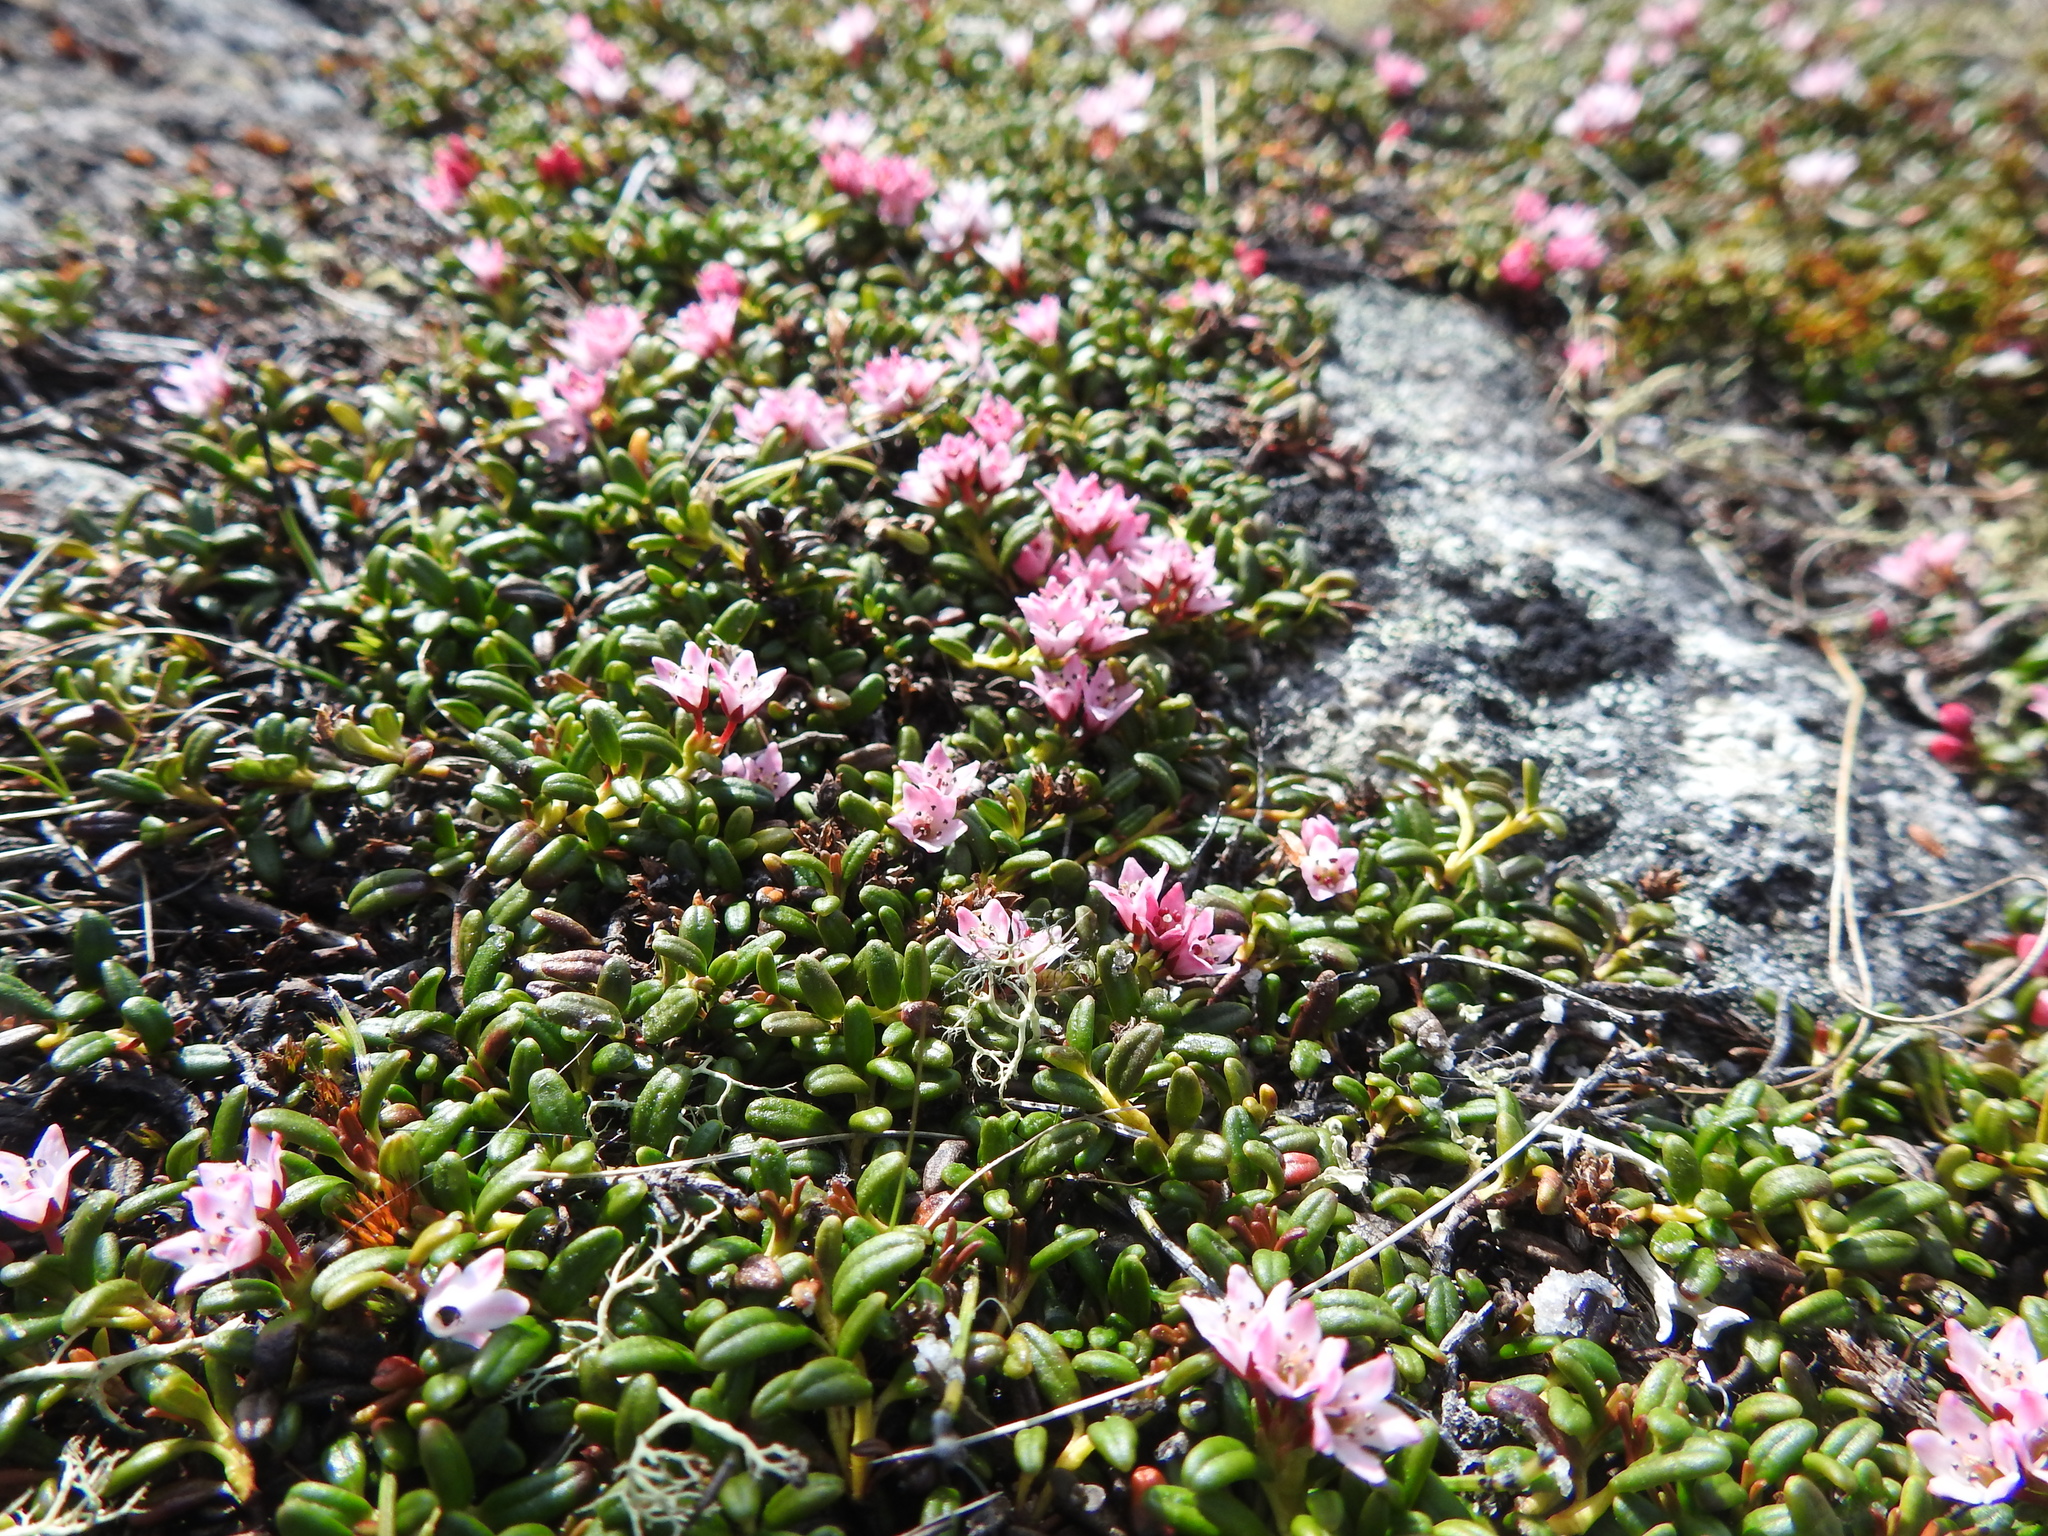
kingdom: Plantae
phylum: Tracheophyta
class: Magnoliopsida
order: Ericales
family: Ericaceae
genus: Kalmia
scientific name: Kalmia procumbens
